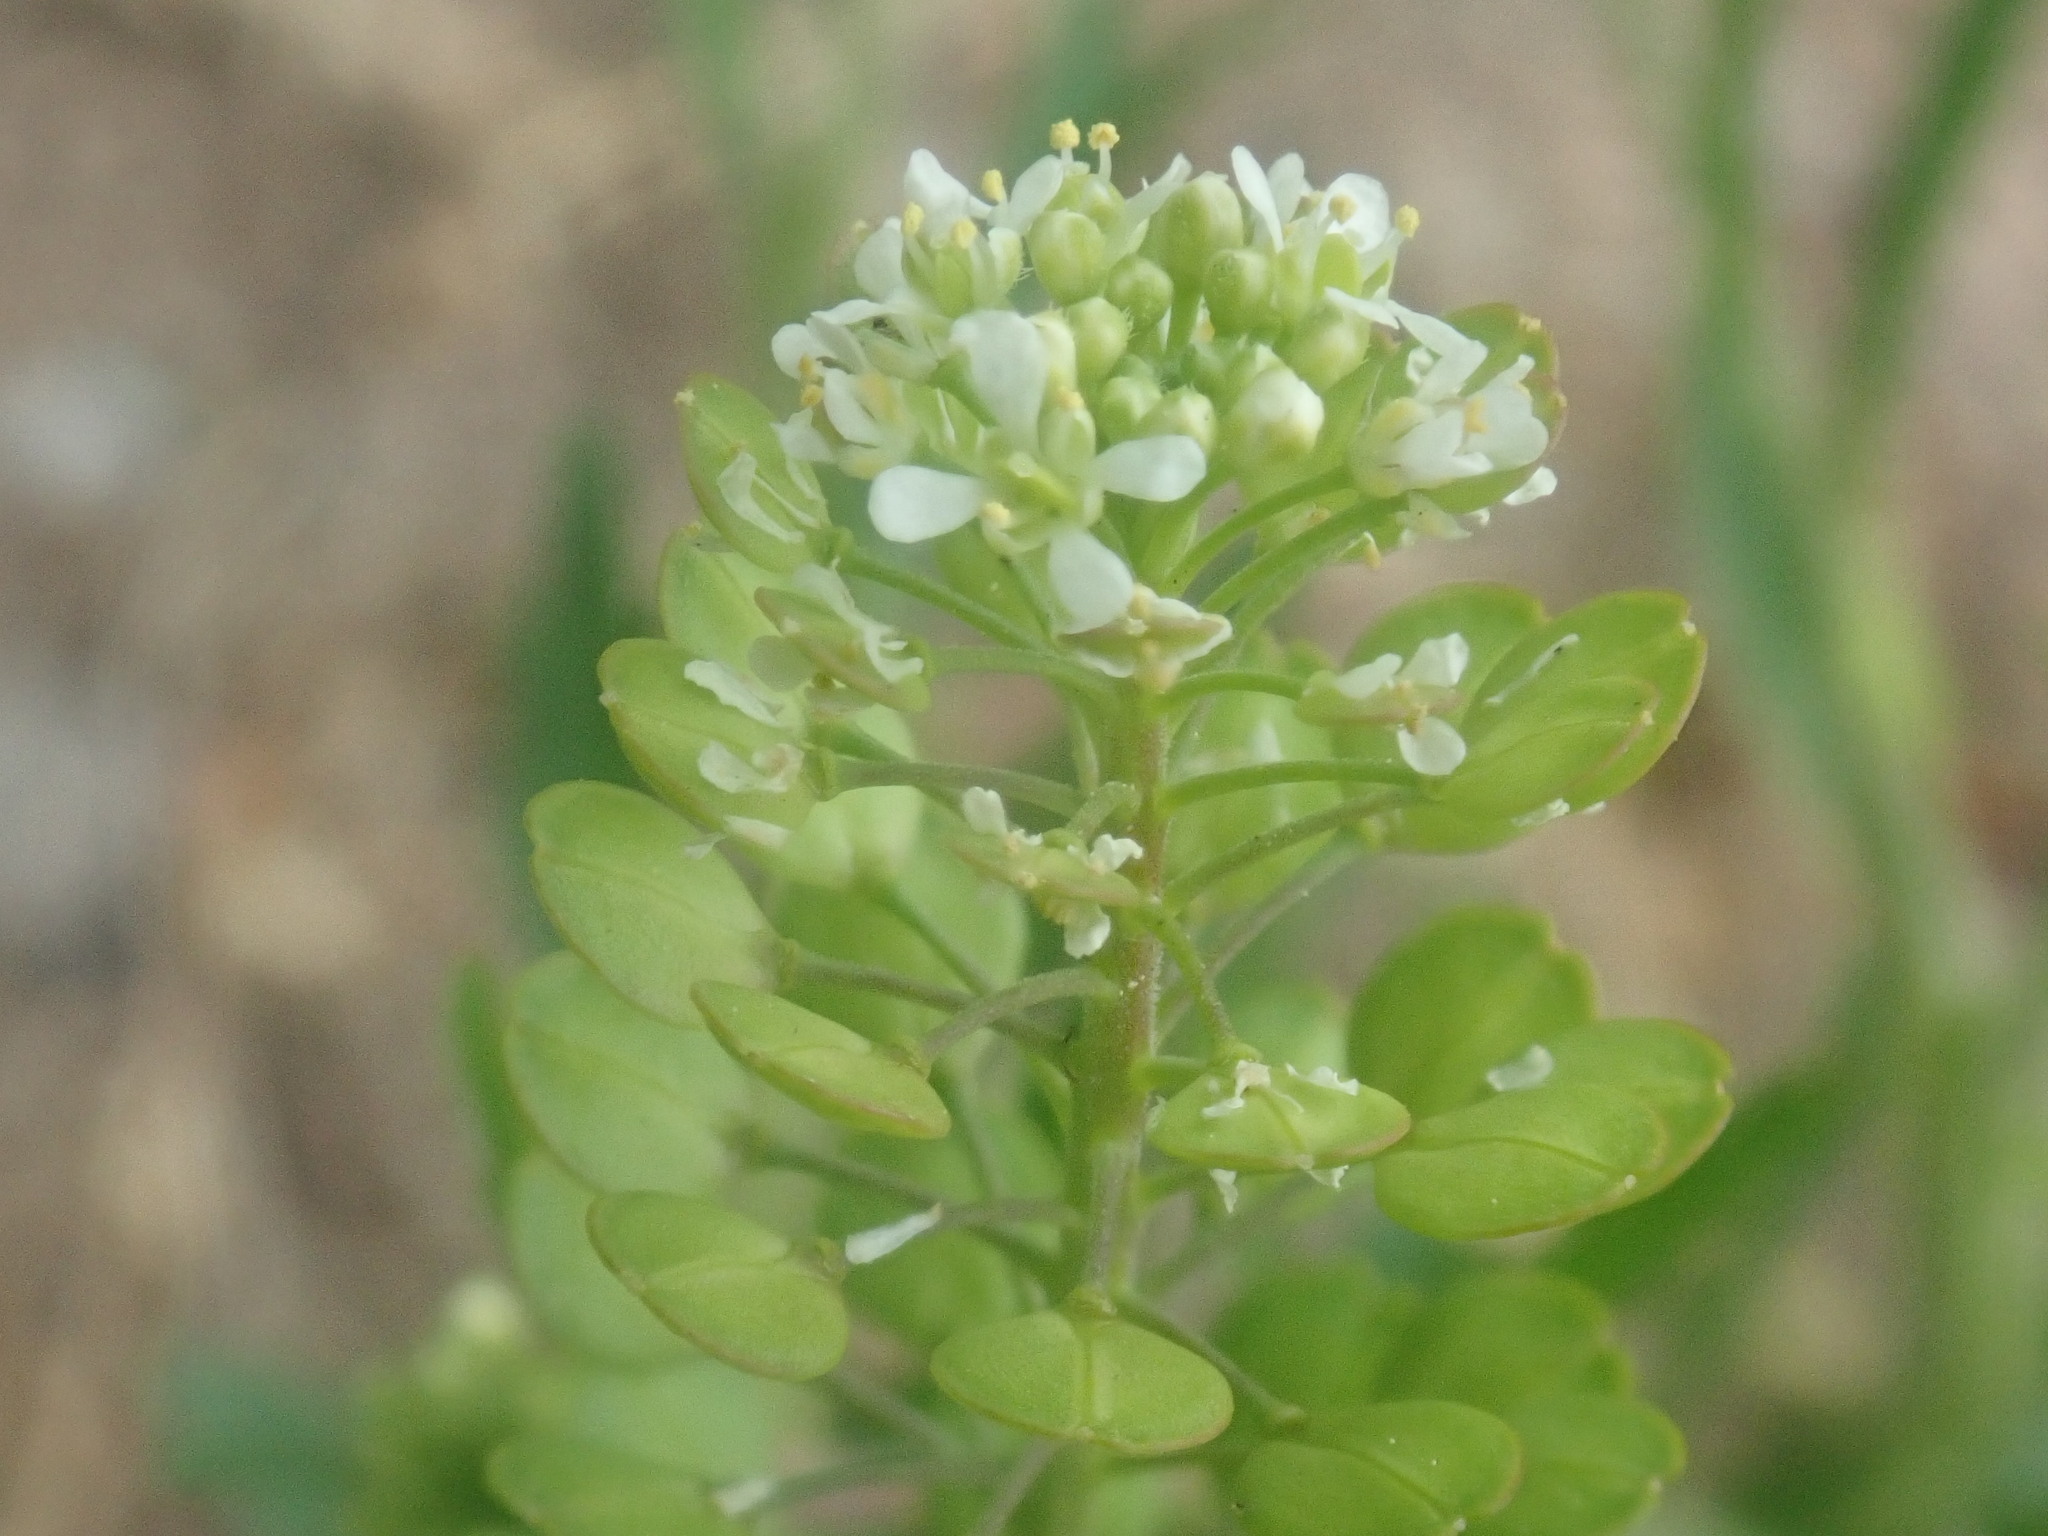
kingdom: Plantae
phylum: Tracheophyta
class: Magnoliopsida
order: Brassicales
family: Brassicaceae
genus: Lepidium
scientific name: Lepidium virginicum
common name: Least pepperwort
